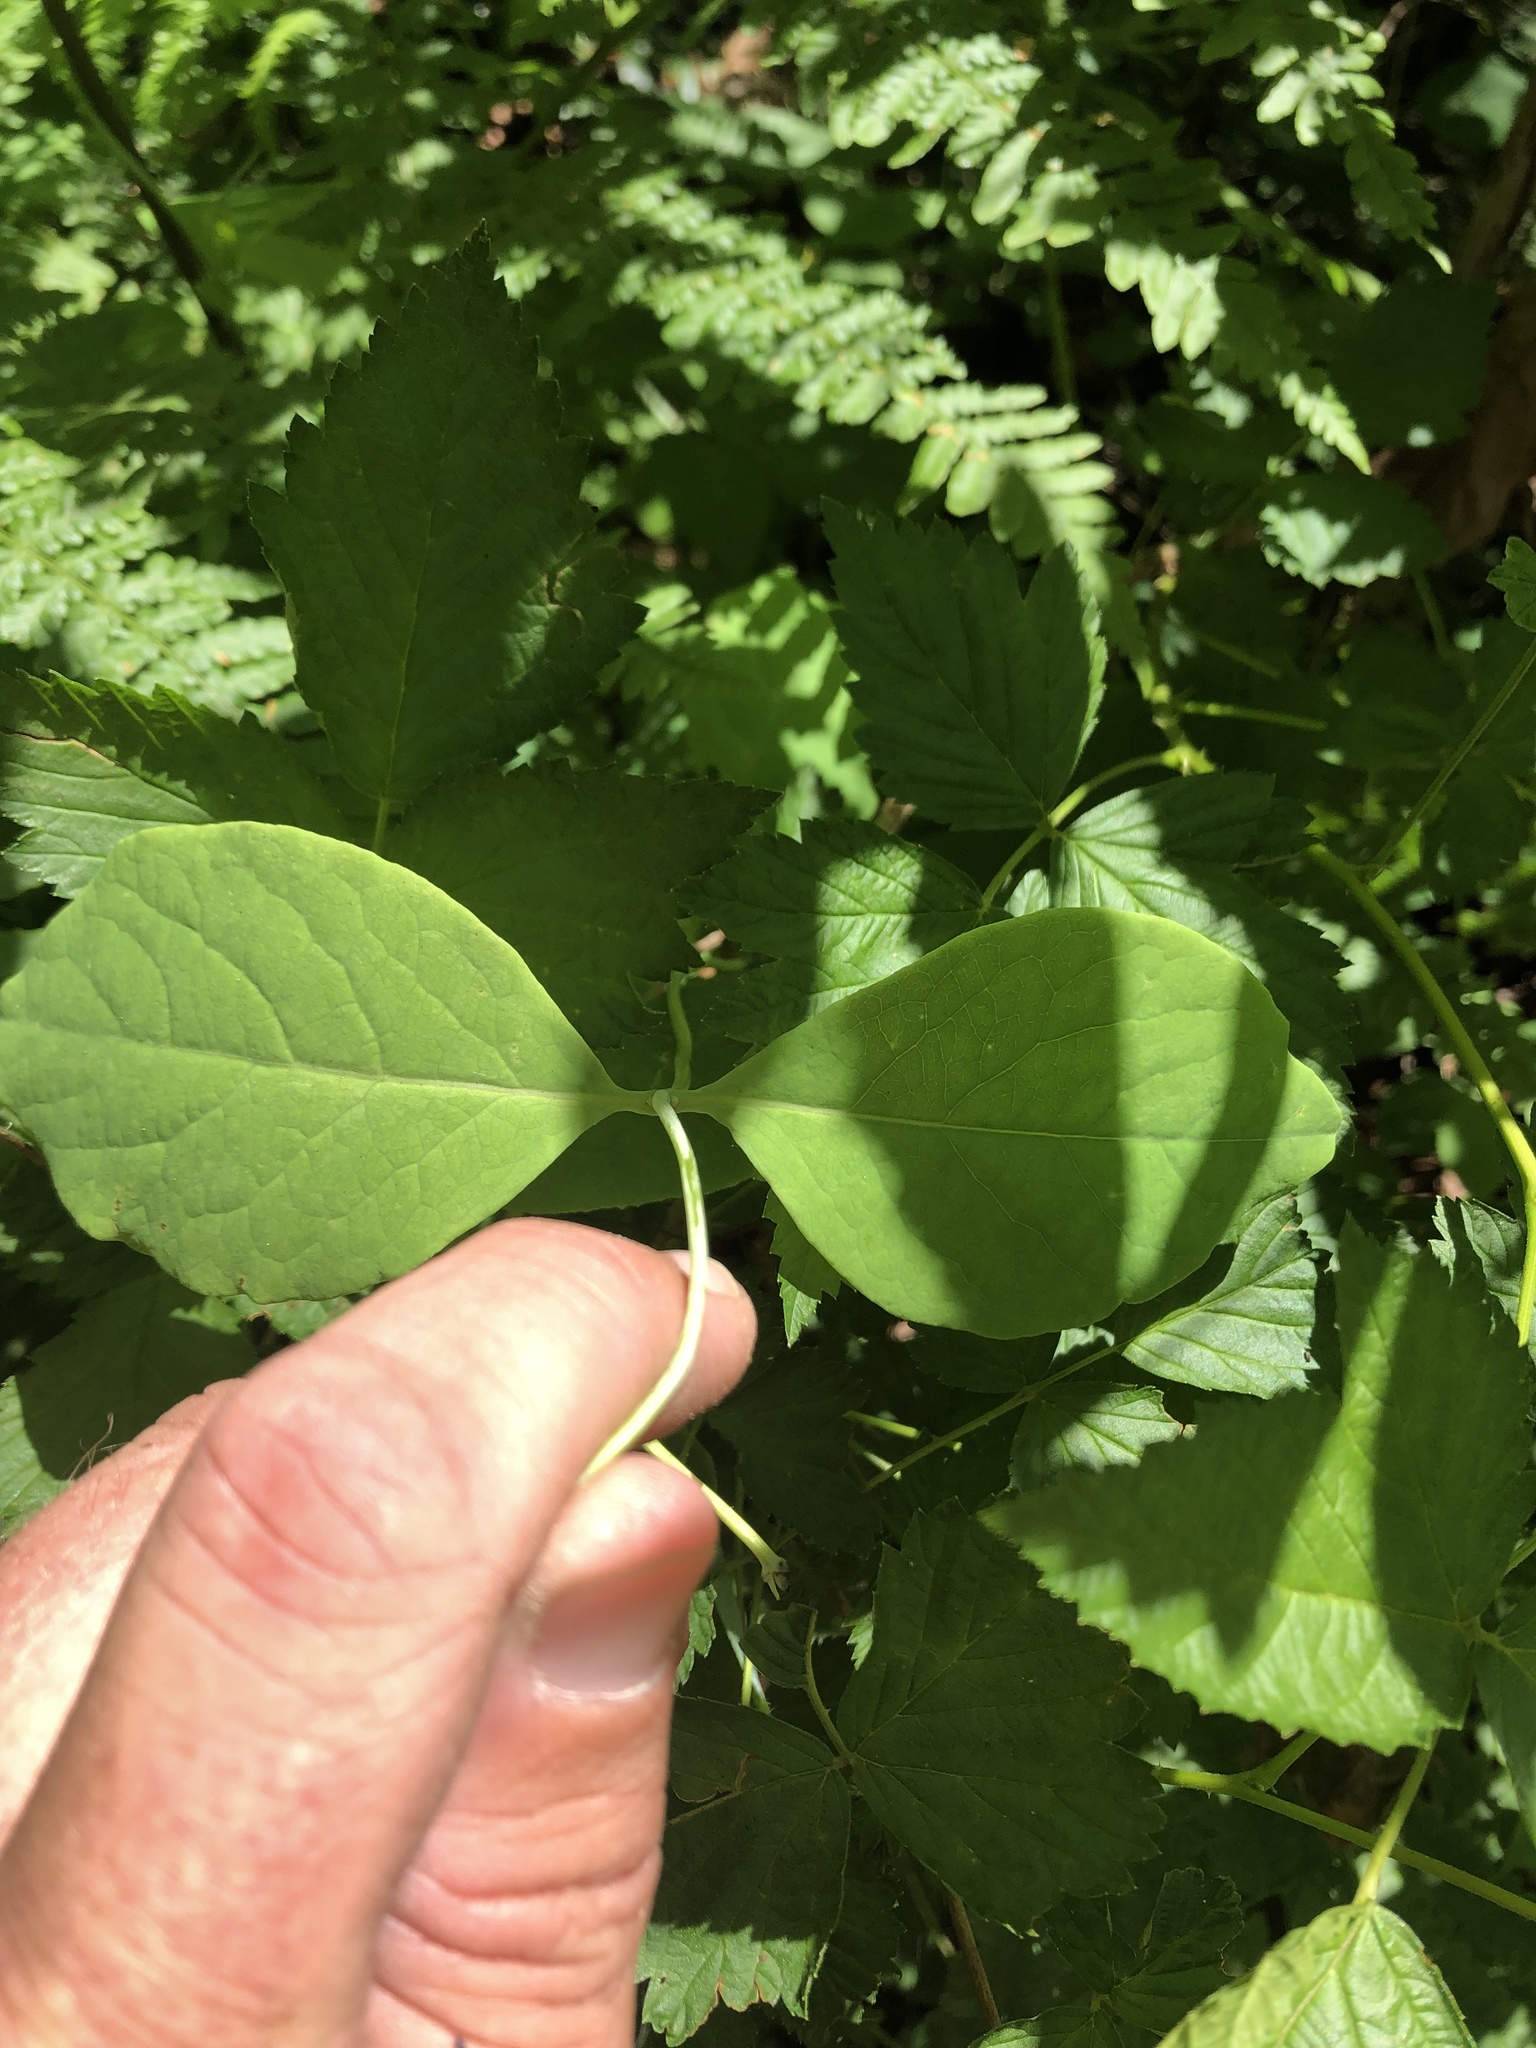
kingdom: Plantae
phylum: Tracheophyta
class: Magnoliopsida
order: Dipsacales
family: Caprifoliaceae
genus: Lonicera
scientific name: Lonicera ciliosa
